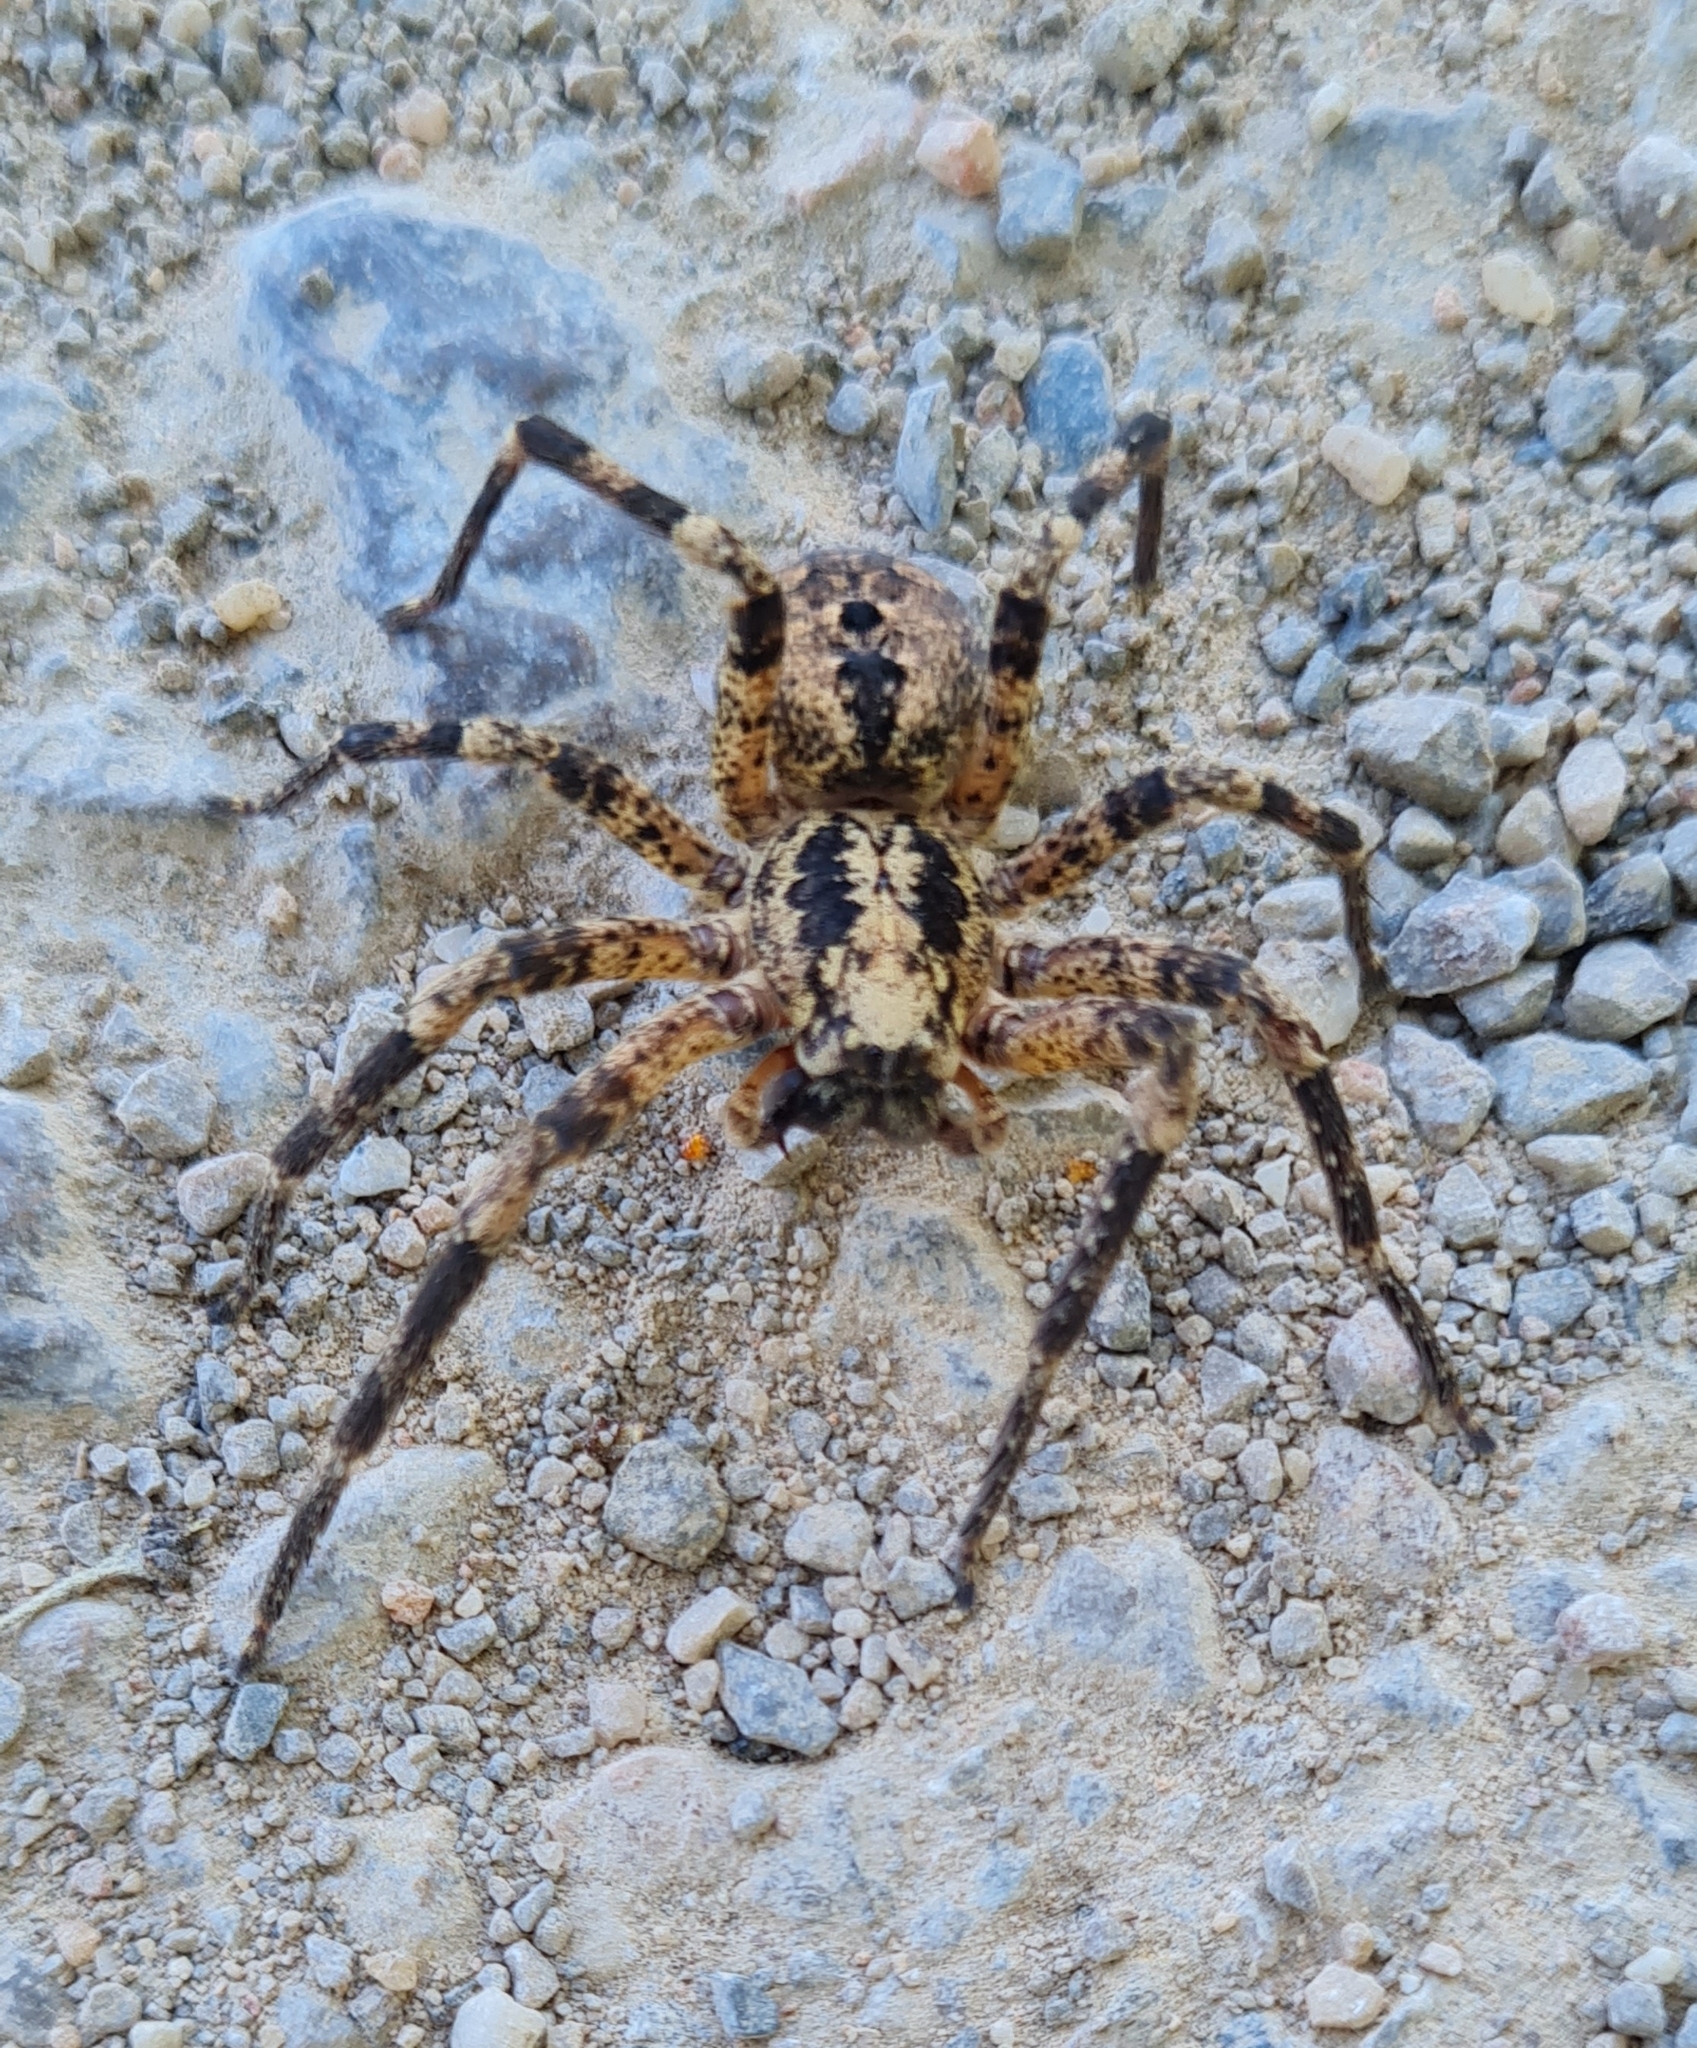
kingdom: Animalia
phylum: Arthropoda
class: Arachnida
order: Araneae
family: Zoropsidae
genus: Zoropsis
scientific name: Zoropsis spinimana
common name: Zoropsid spider
